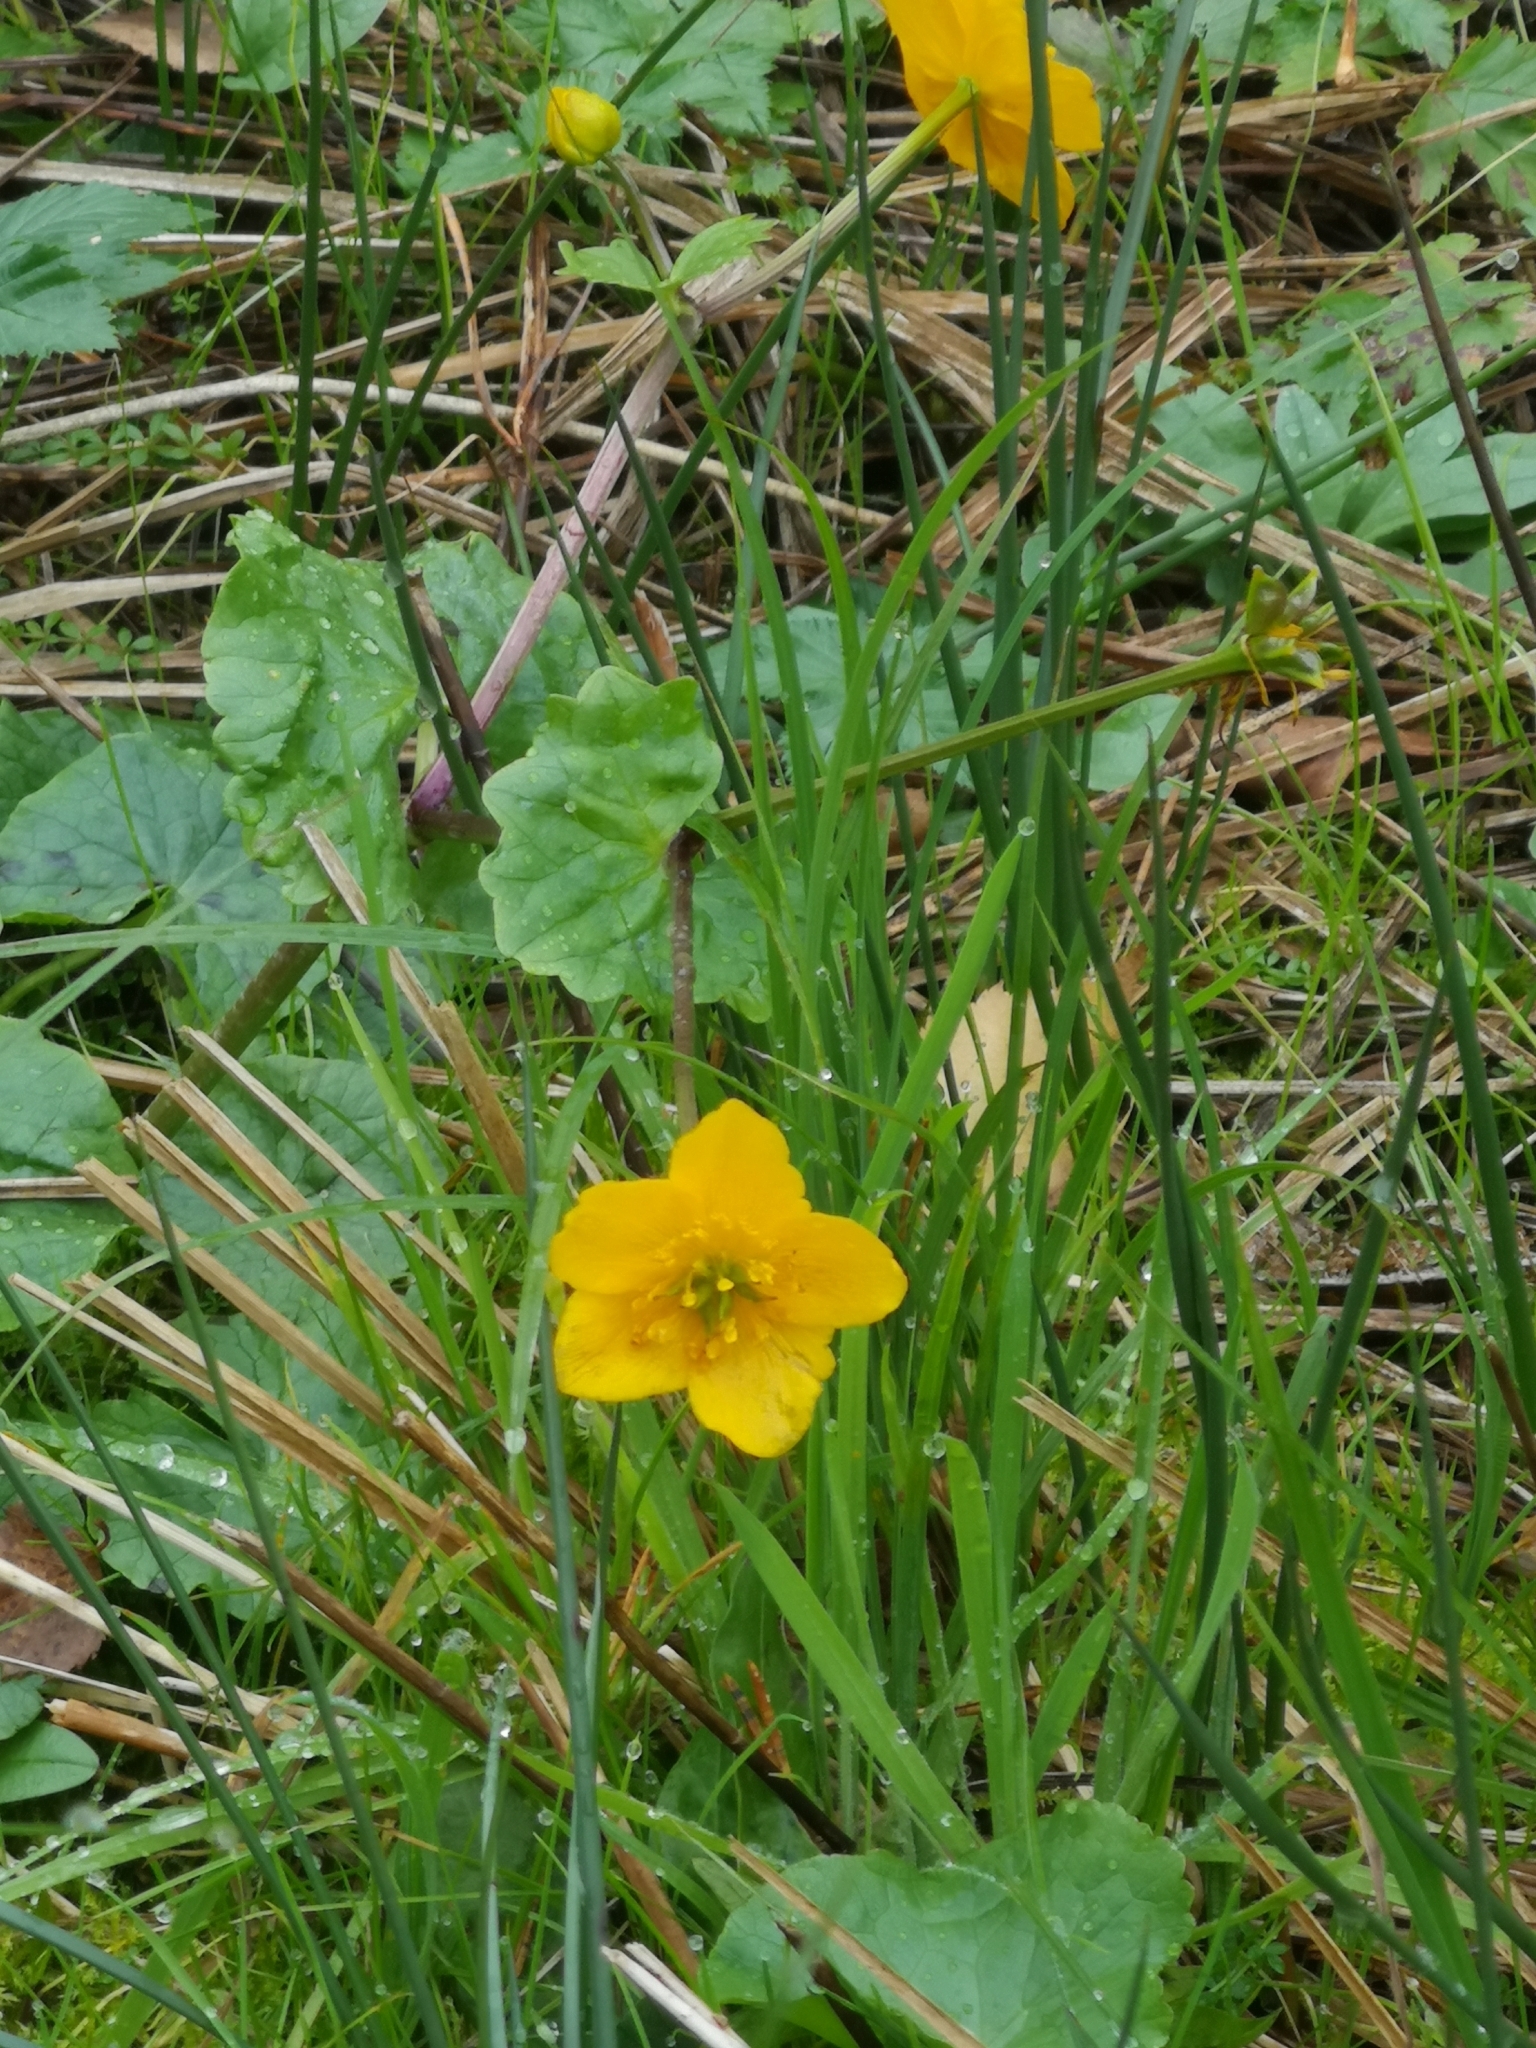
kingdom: Plantae
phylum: Tracheophyta
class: Magnoliopsida
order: Ranunculales
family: Ranunculaceae
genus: Caltha
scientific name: Caltha palustris
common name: Marsh marigold
